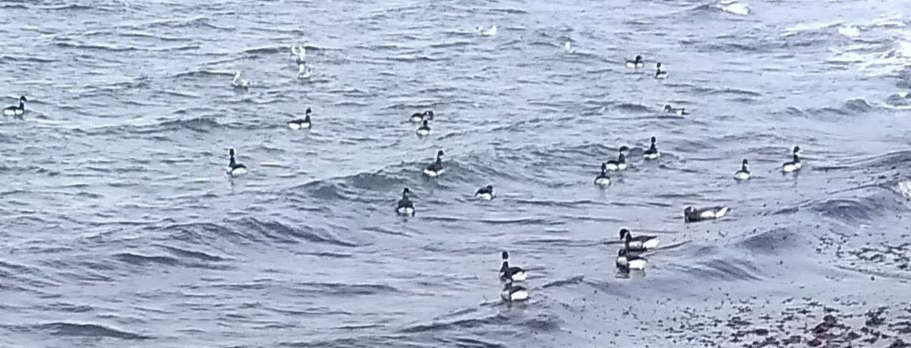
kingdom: Animalia
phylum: Chordata
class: Aves
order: Anseriformes
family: Anatidae
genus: Branta
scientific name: Branta bernicla
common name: Brant goose
